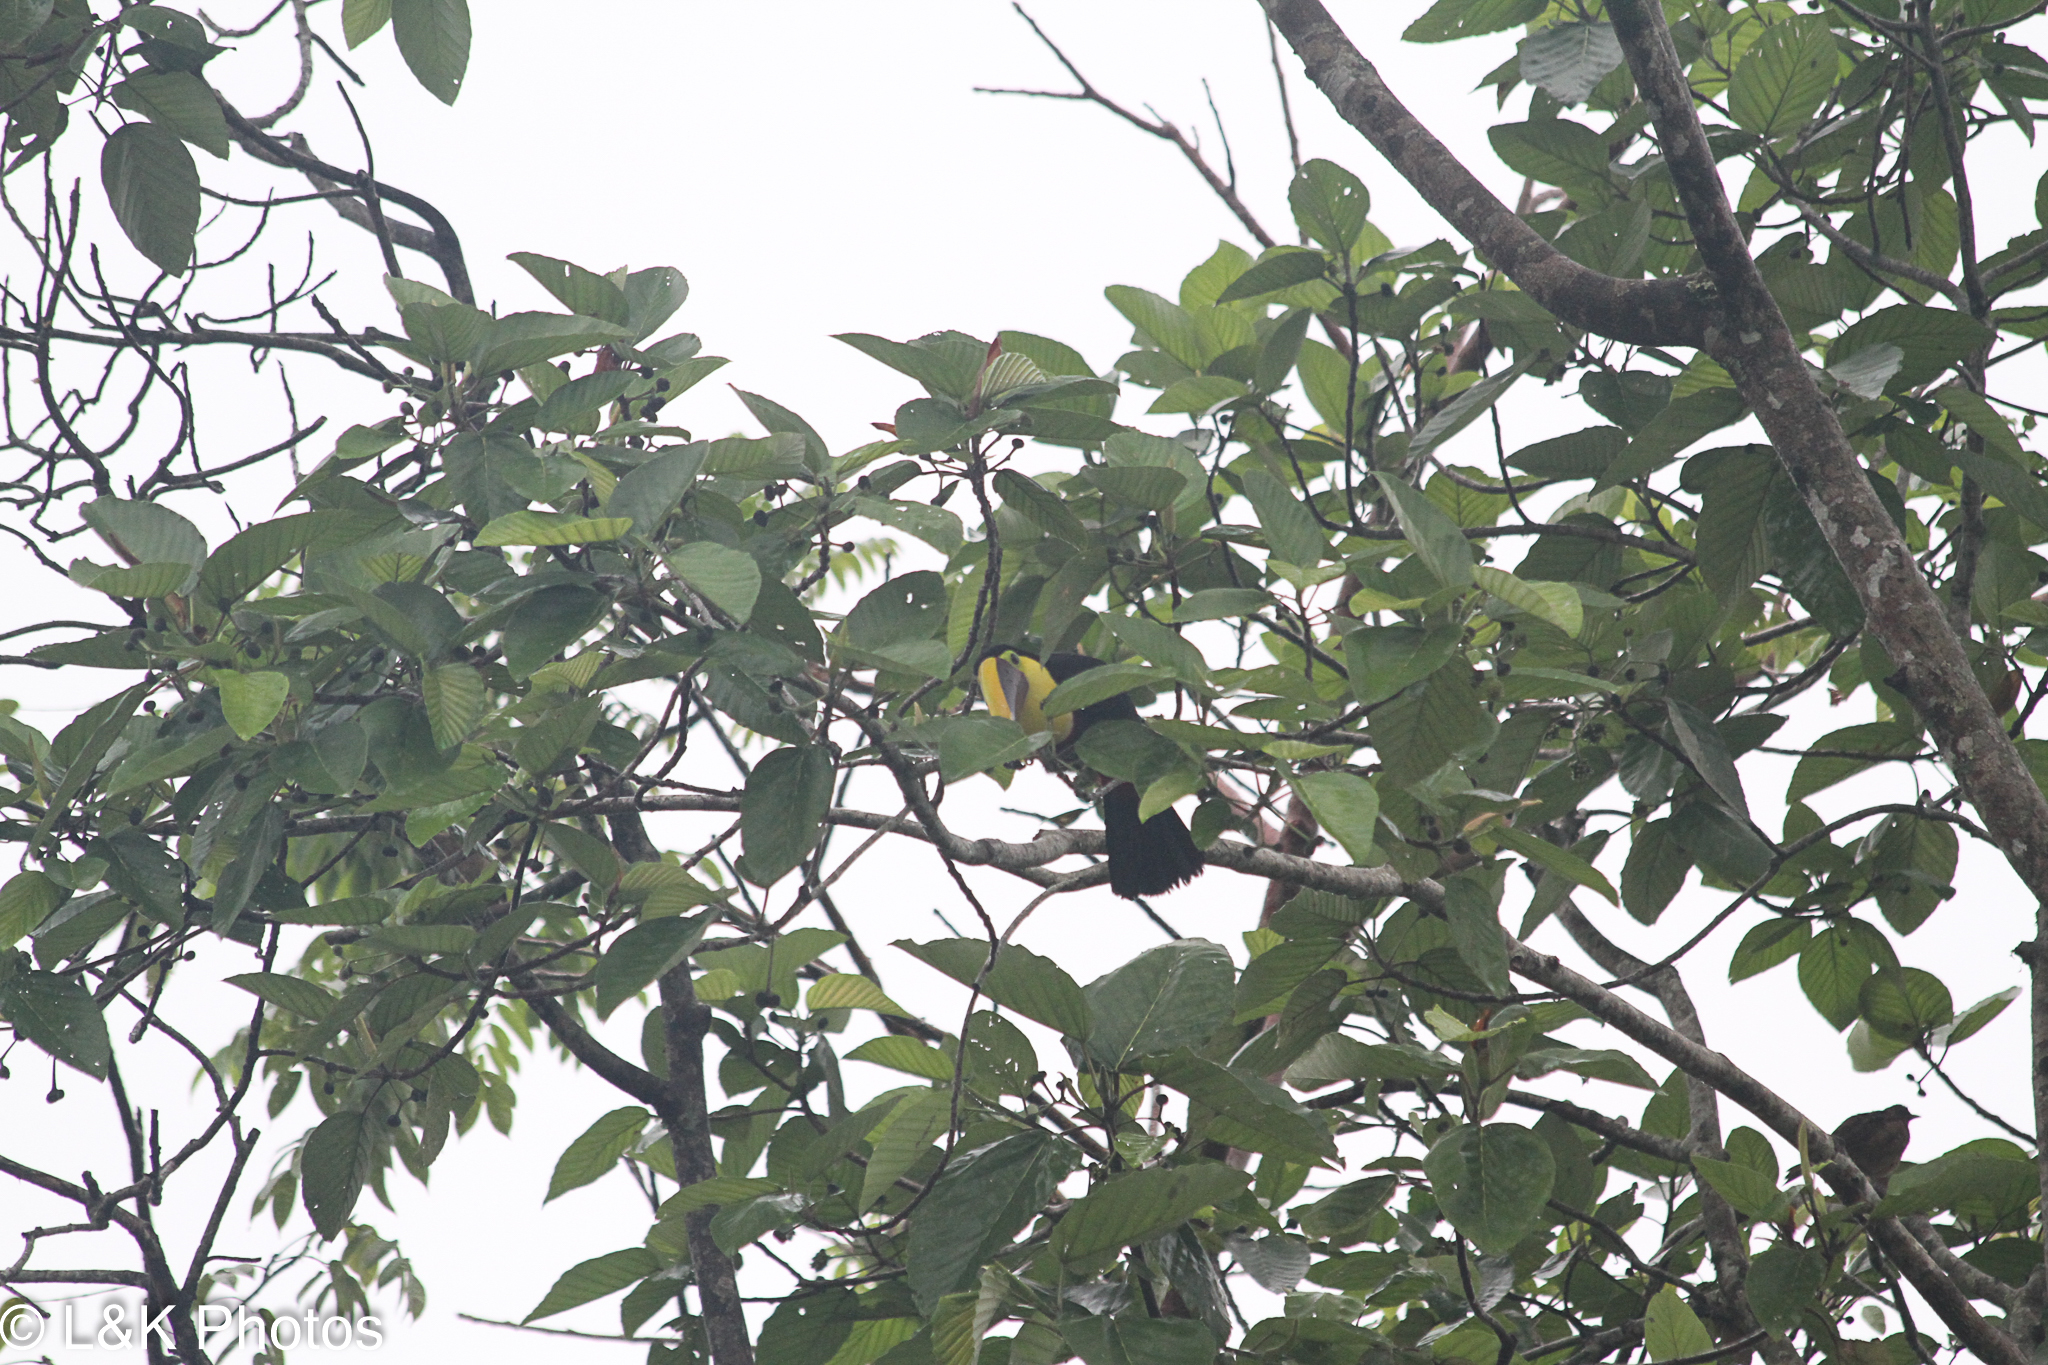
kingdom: Animalia
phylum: Chordata
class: Aves
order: Piciformes
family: Ramphastidae
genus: Ramphastos
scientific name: Ramphastos ambiguus
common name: Yellow-throated toucan
